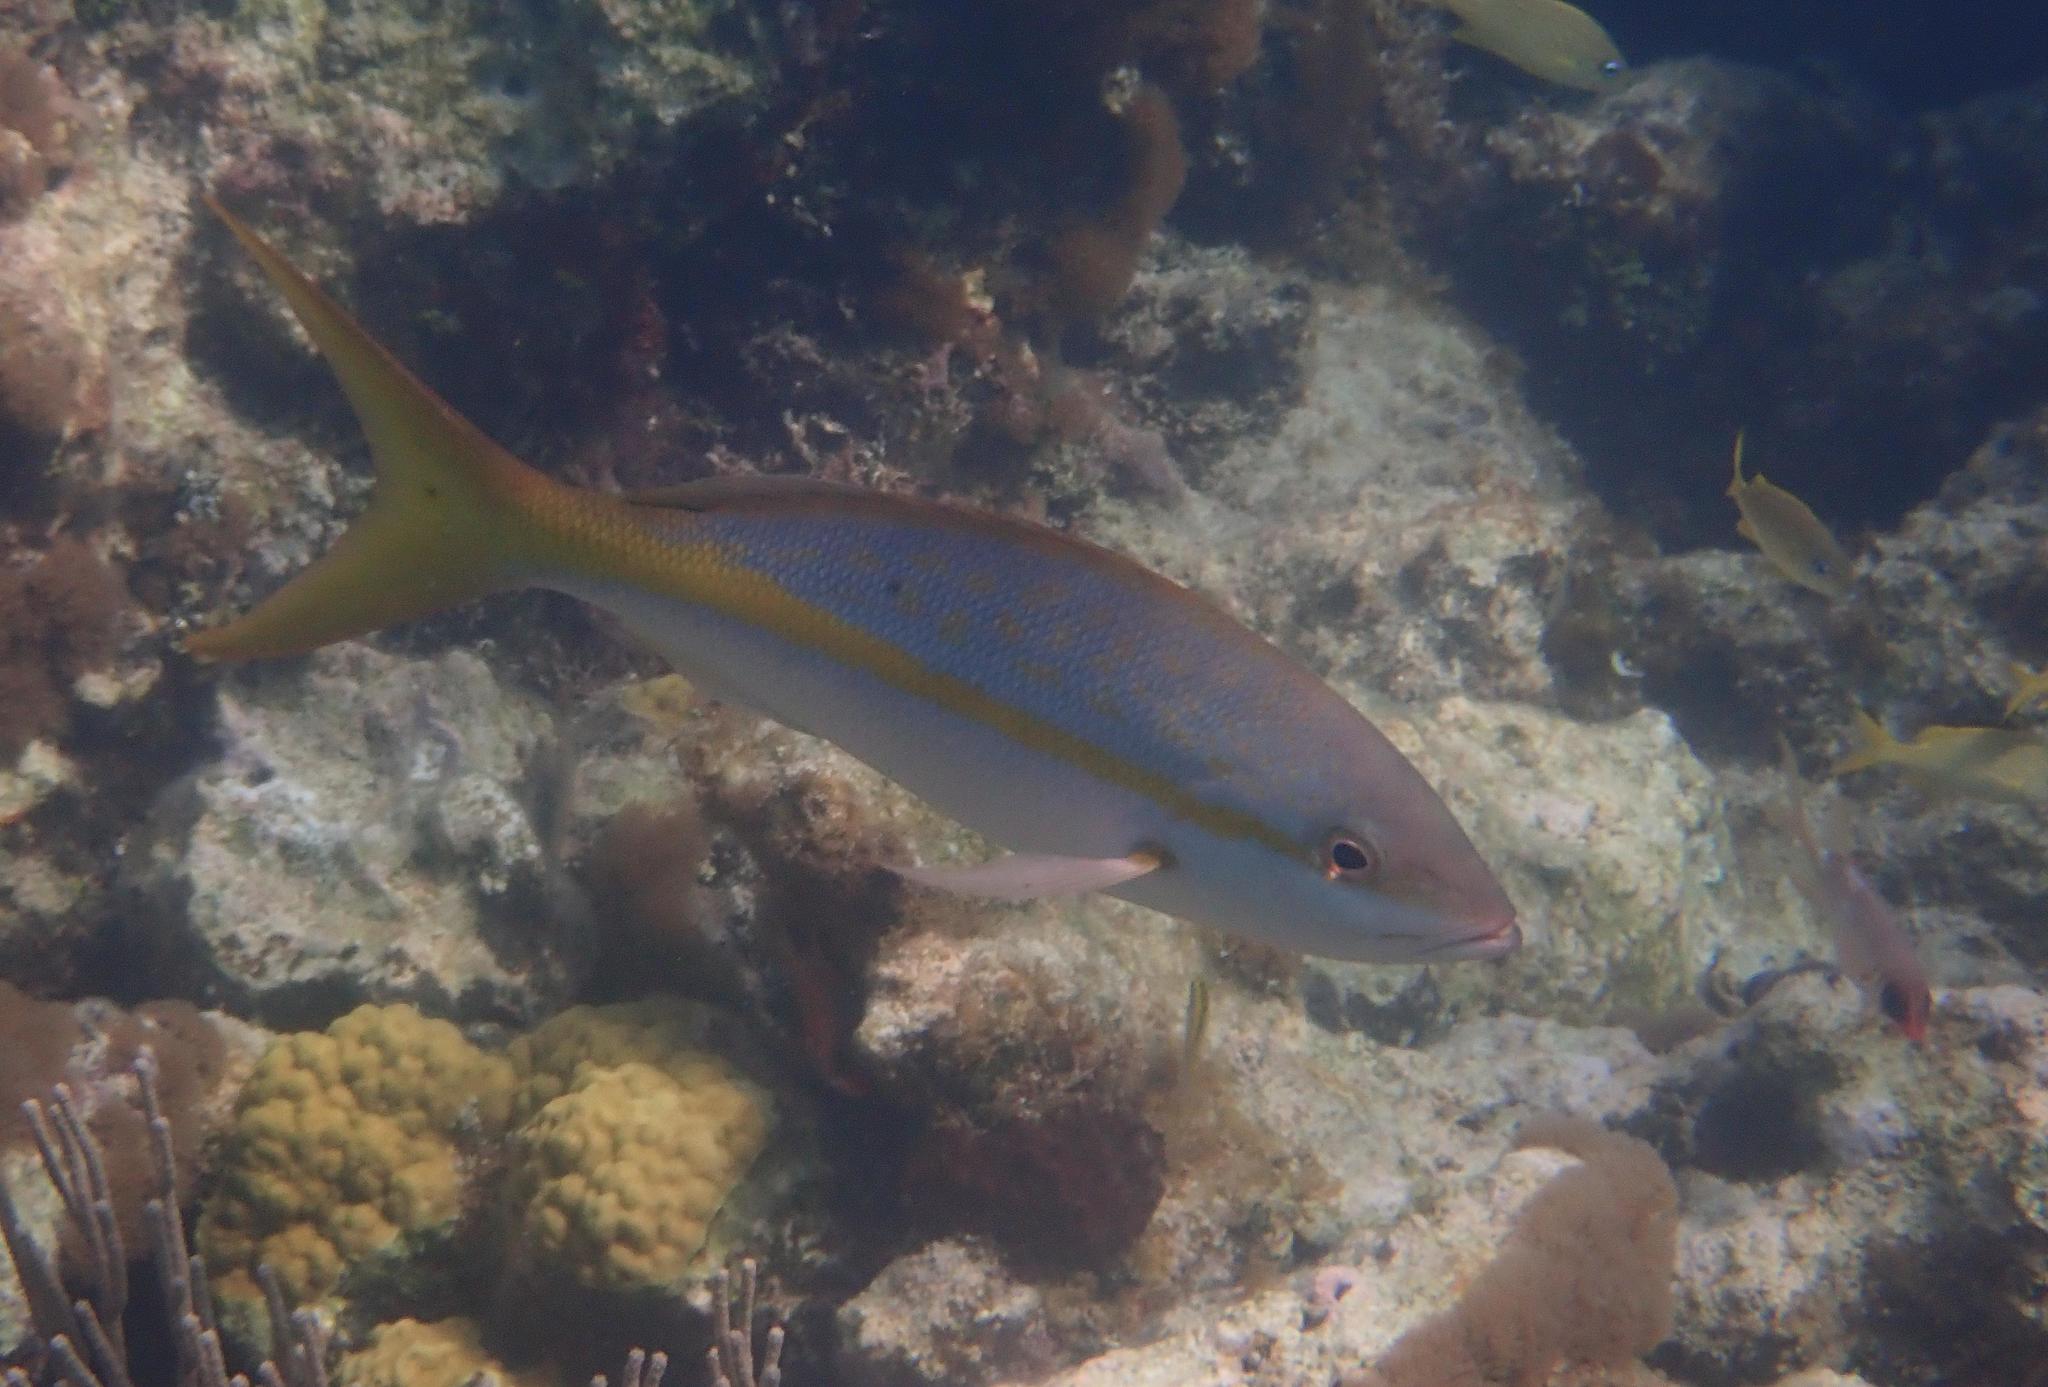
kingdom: Animalia
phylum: Chordata
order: Perciformes
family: Lutjanidae
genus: Ocyurus
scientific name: Ocyurus chrysurus
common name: Yellowtail snapper
